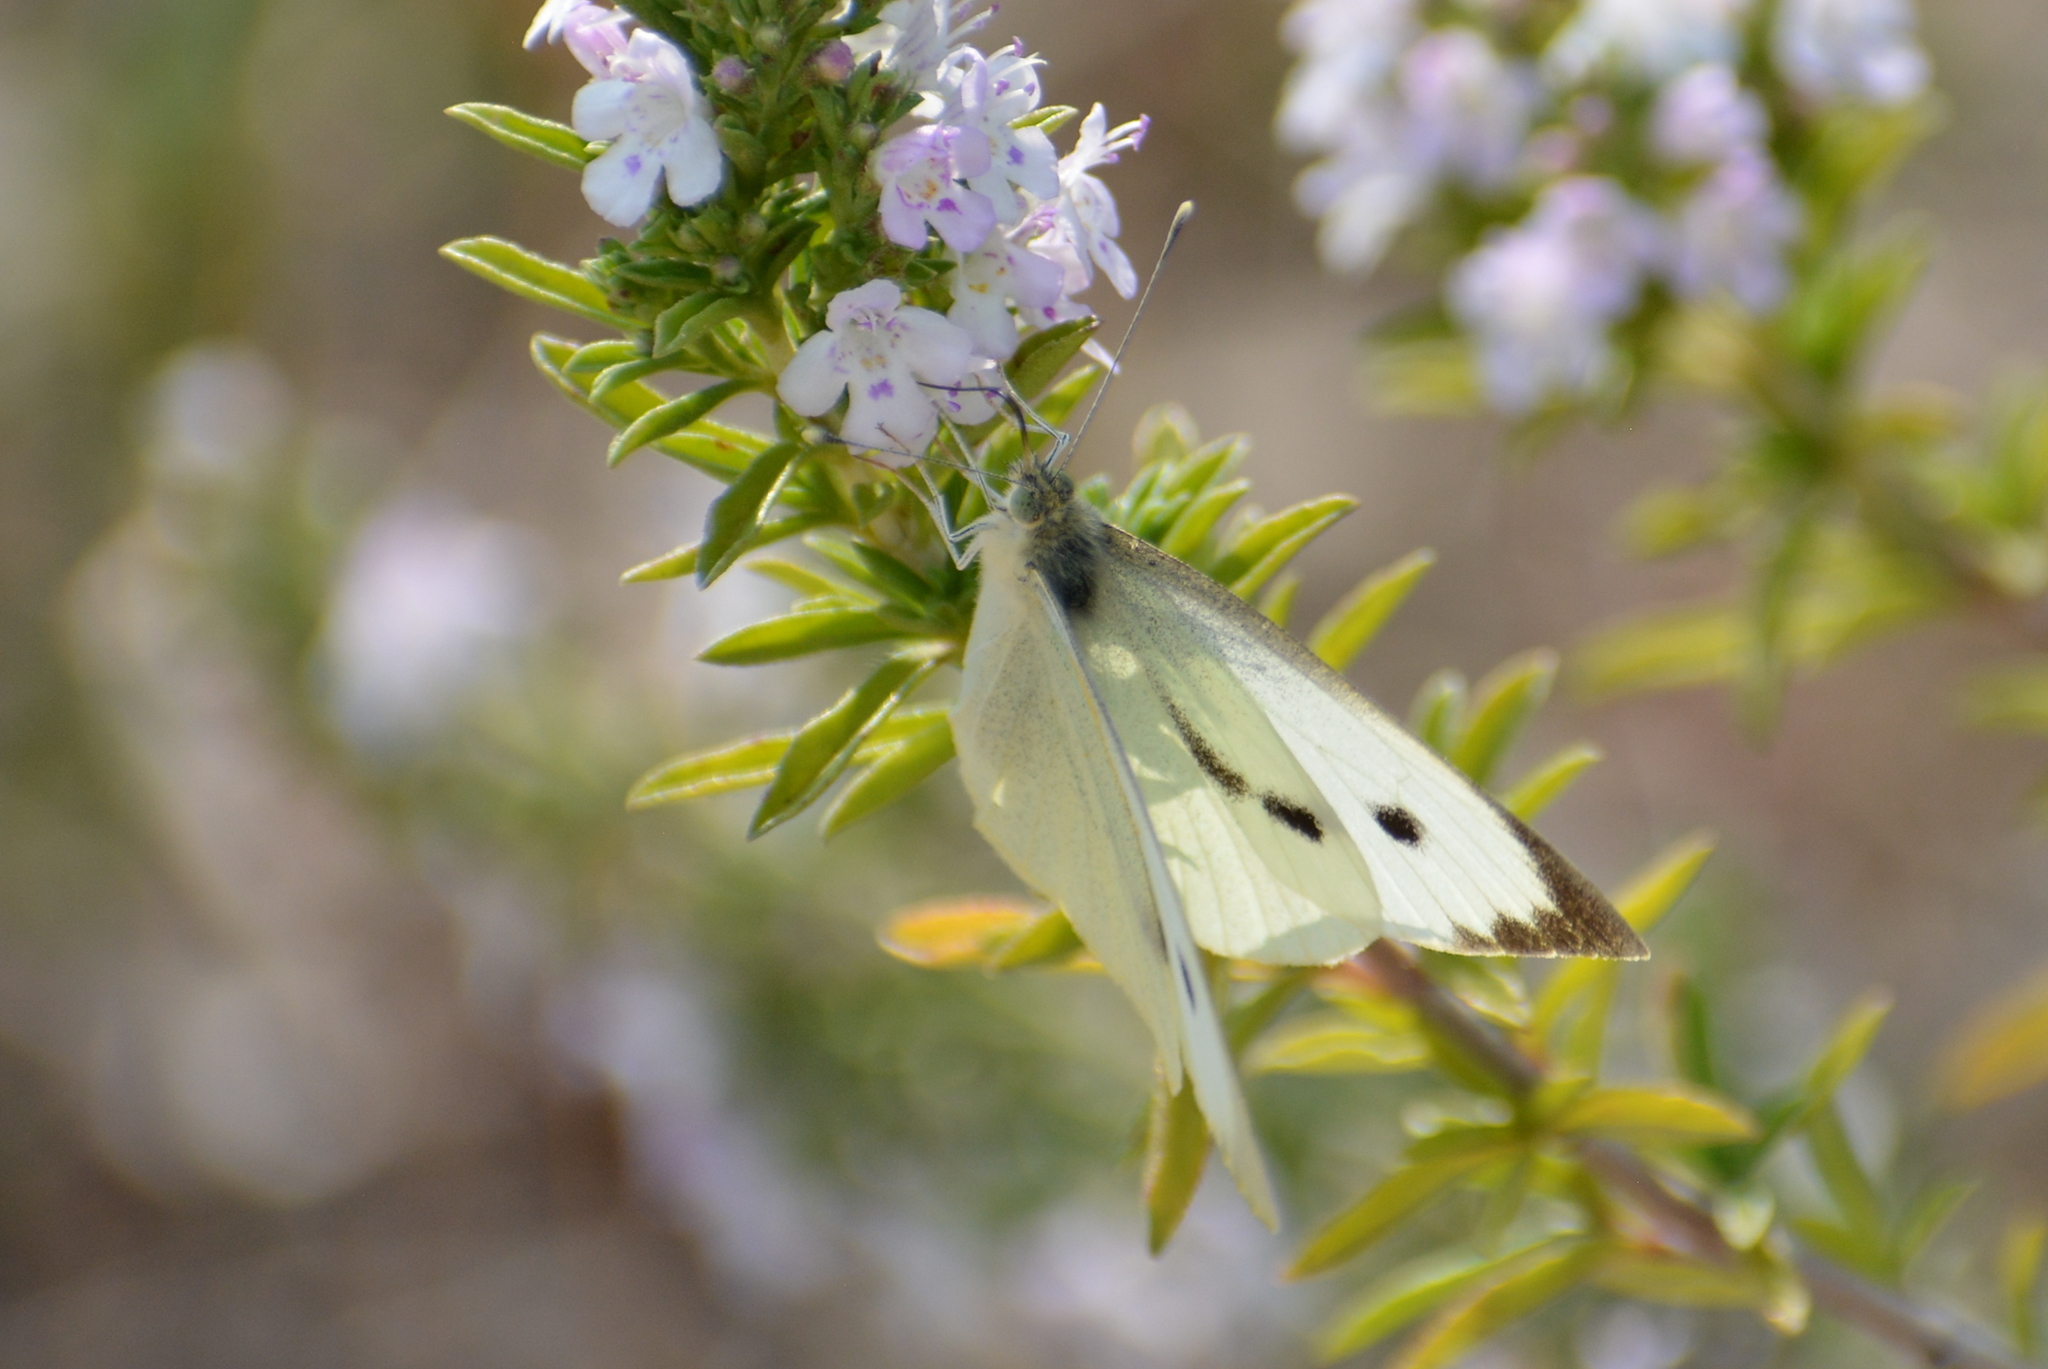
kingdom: Animalia
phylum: Arthropoda
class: Insecta
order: Lepidoptera
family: Pieridae
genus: Pieris
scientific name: Pieris brassicae
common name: Large white
